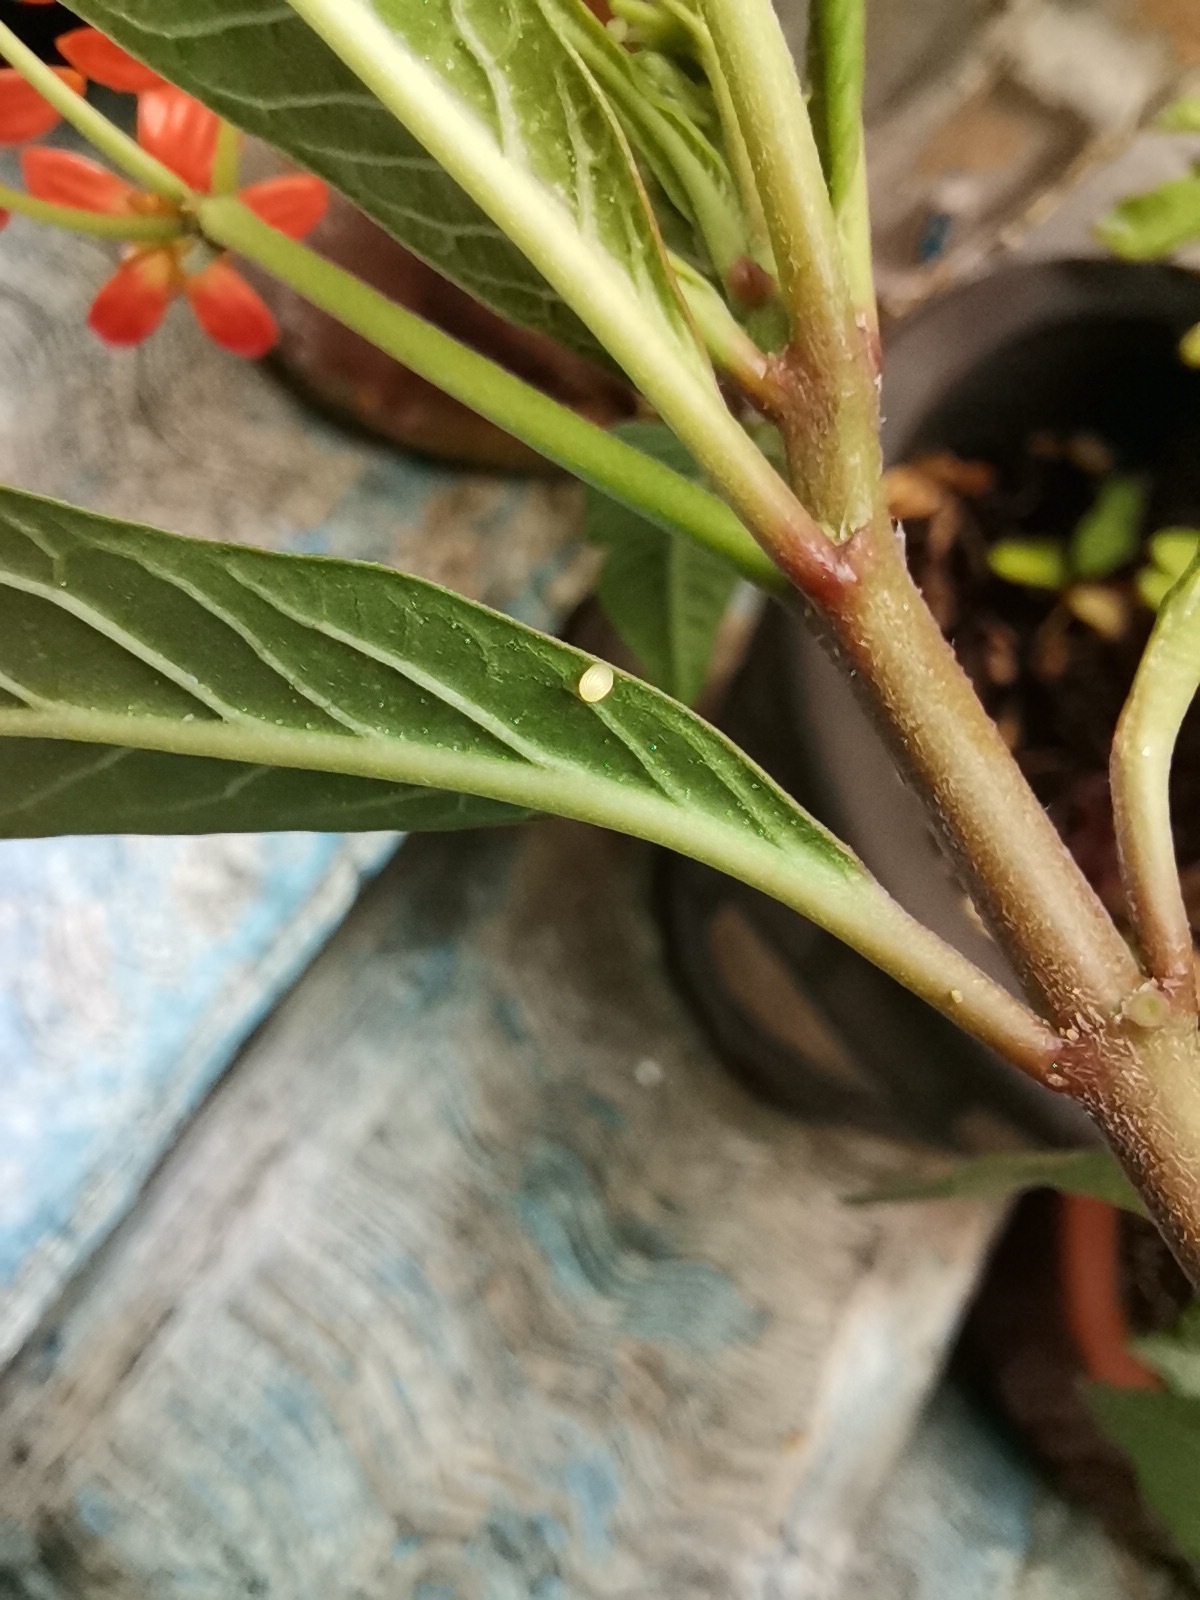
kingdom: Animalia
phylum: Arthropoda
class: Insecta
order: Lepidoptera
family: Nymphalidae
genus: Danaus
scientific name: Danaus plexippus
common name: Monarch
